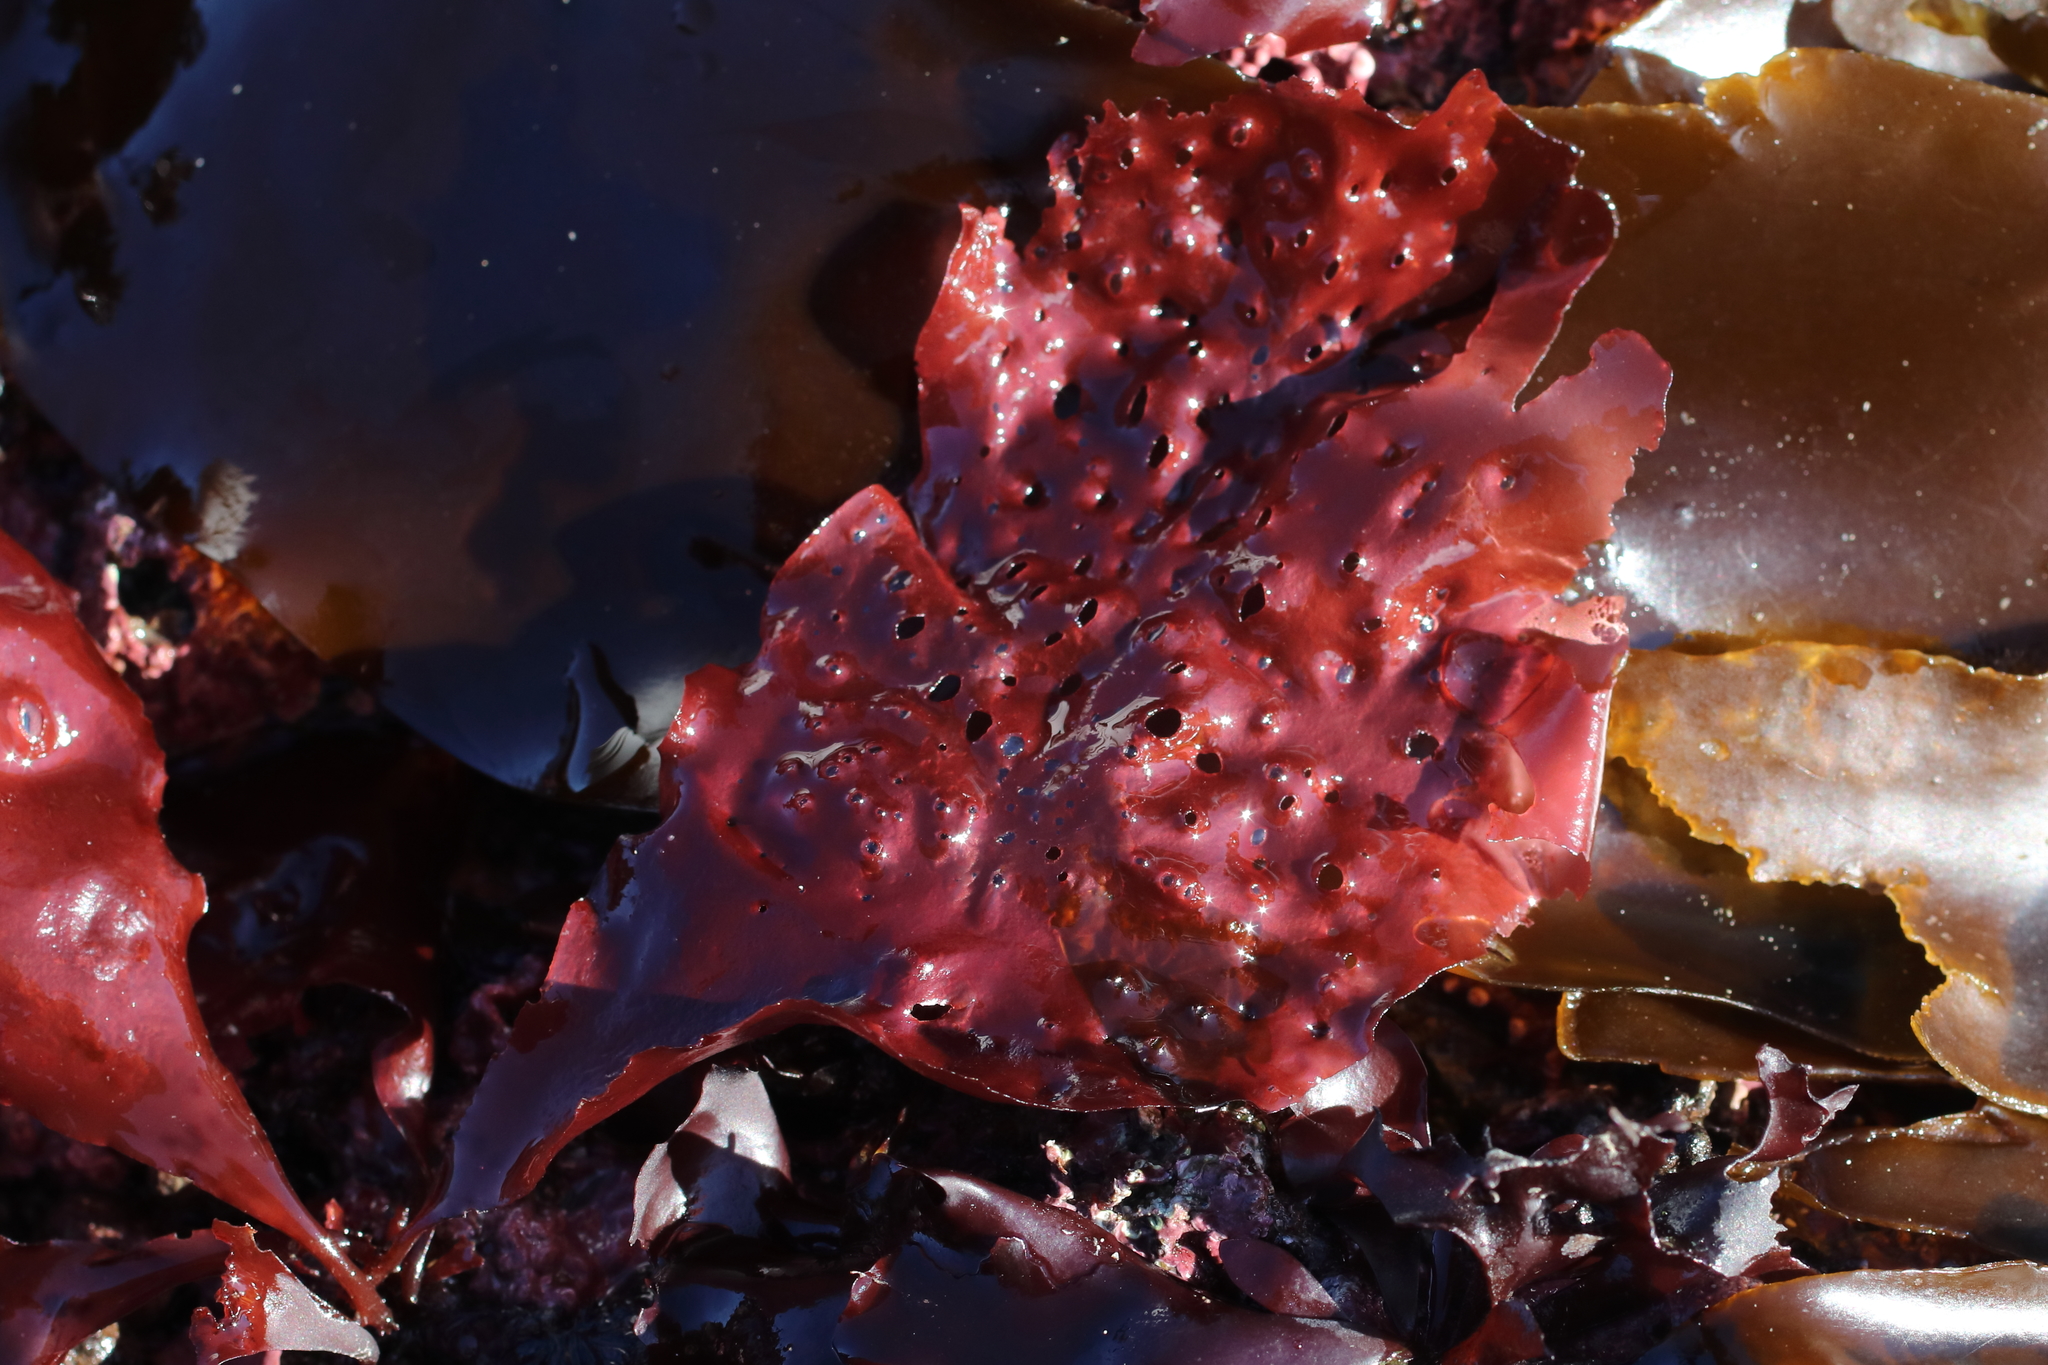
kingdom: Plantae
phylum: Rhodophyta
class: Florideophyceae
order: Rhodymeniales
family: Rhodymeniaceae
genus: Sparlingia
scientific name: Sparlingia pertusa
